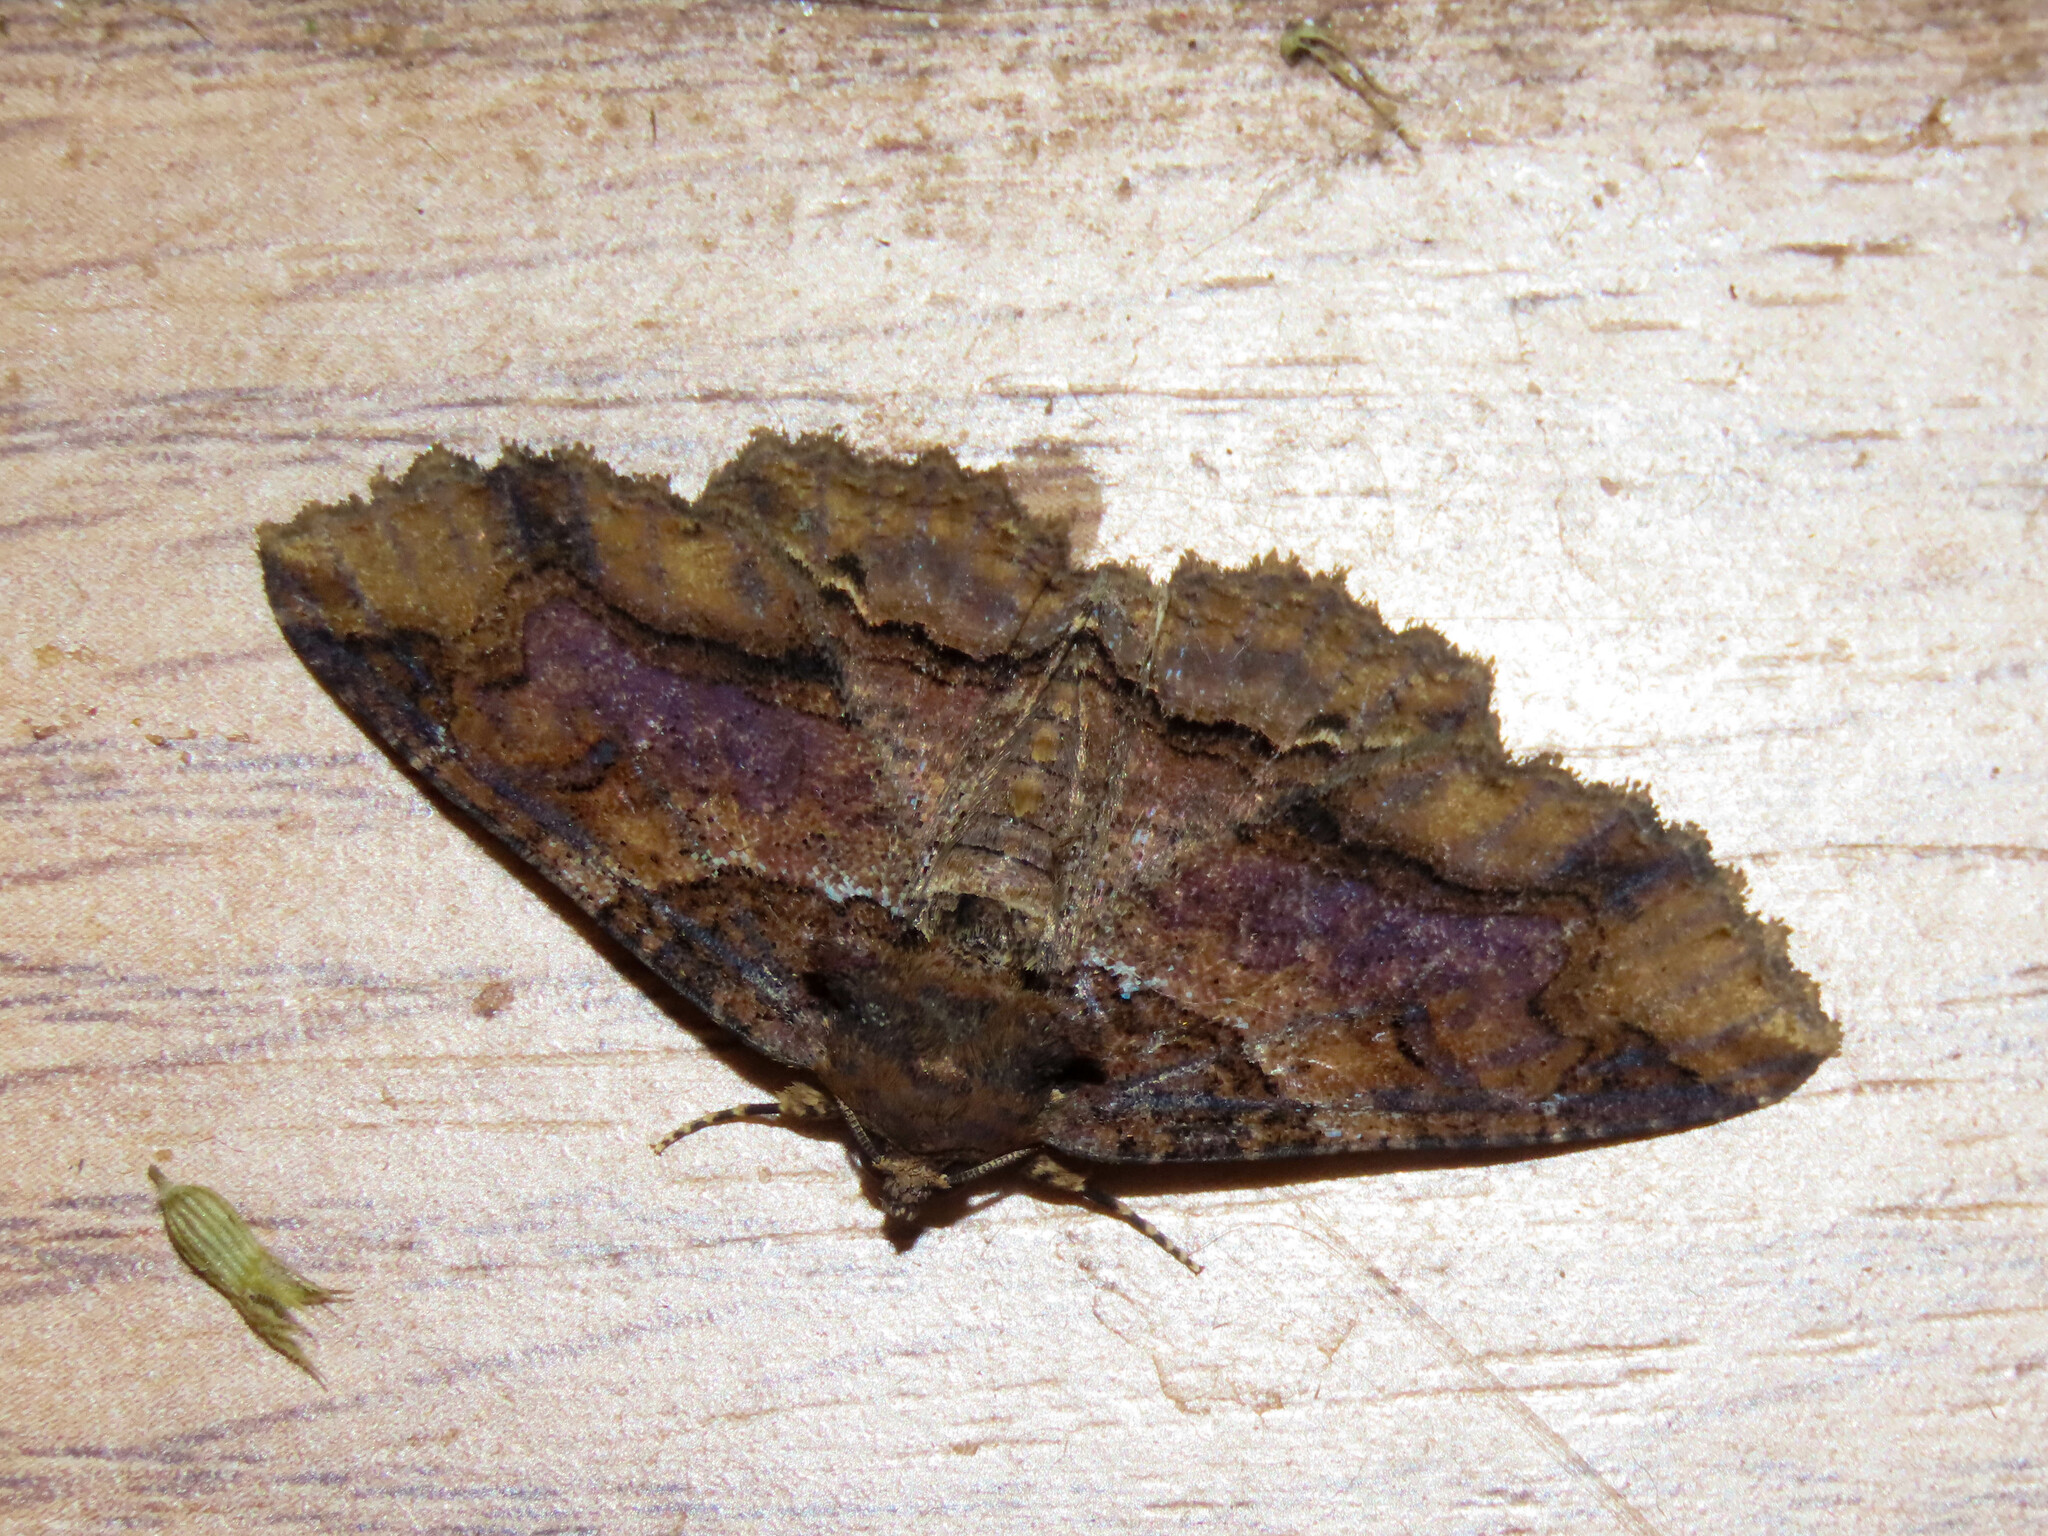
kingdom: Animalia
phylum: Arthropoda
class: Insecta
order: Lepidoptera
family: Erebidae
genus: Zale
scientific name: Zale minerea
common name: Colorful zale moth
